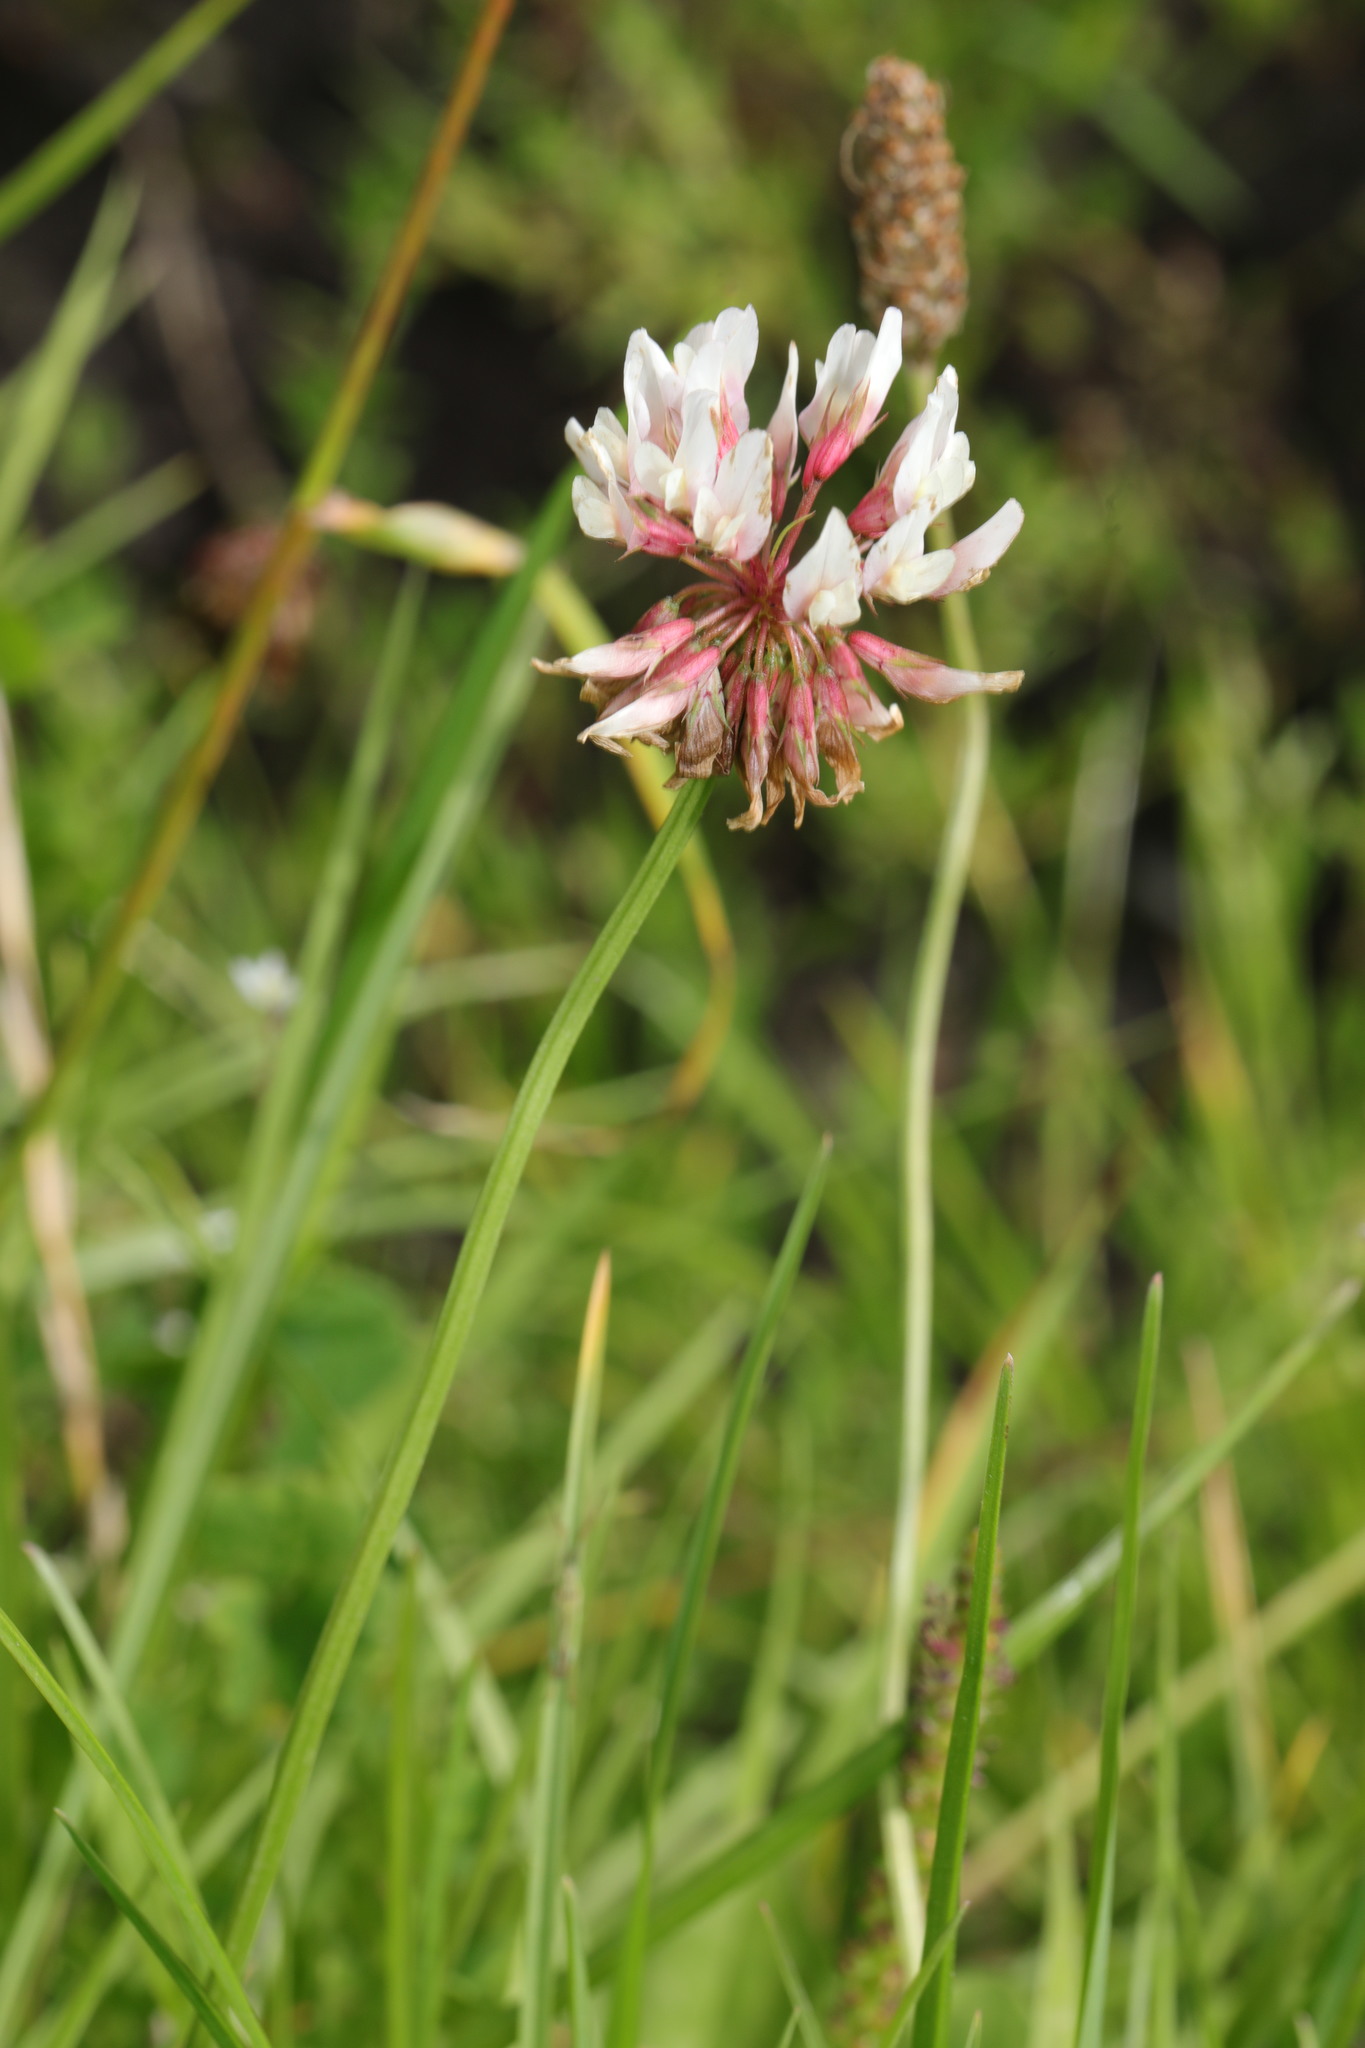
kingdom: Plantae
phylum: Tracheophyta
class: Magnoliopsida
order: Fabales
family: Fabaceae
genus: Trifolium
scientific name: Trifolium hybridum
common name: Alsike clover
